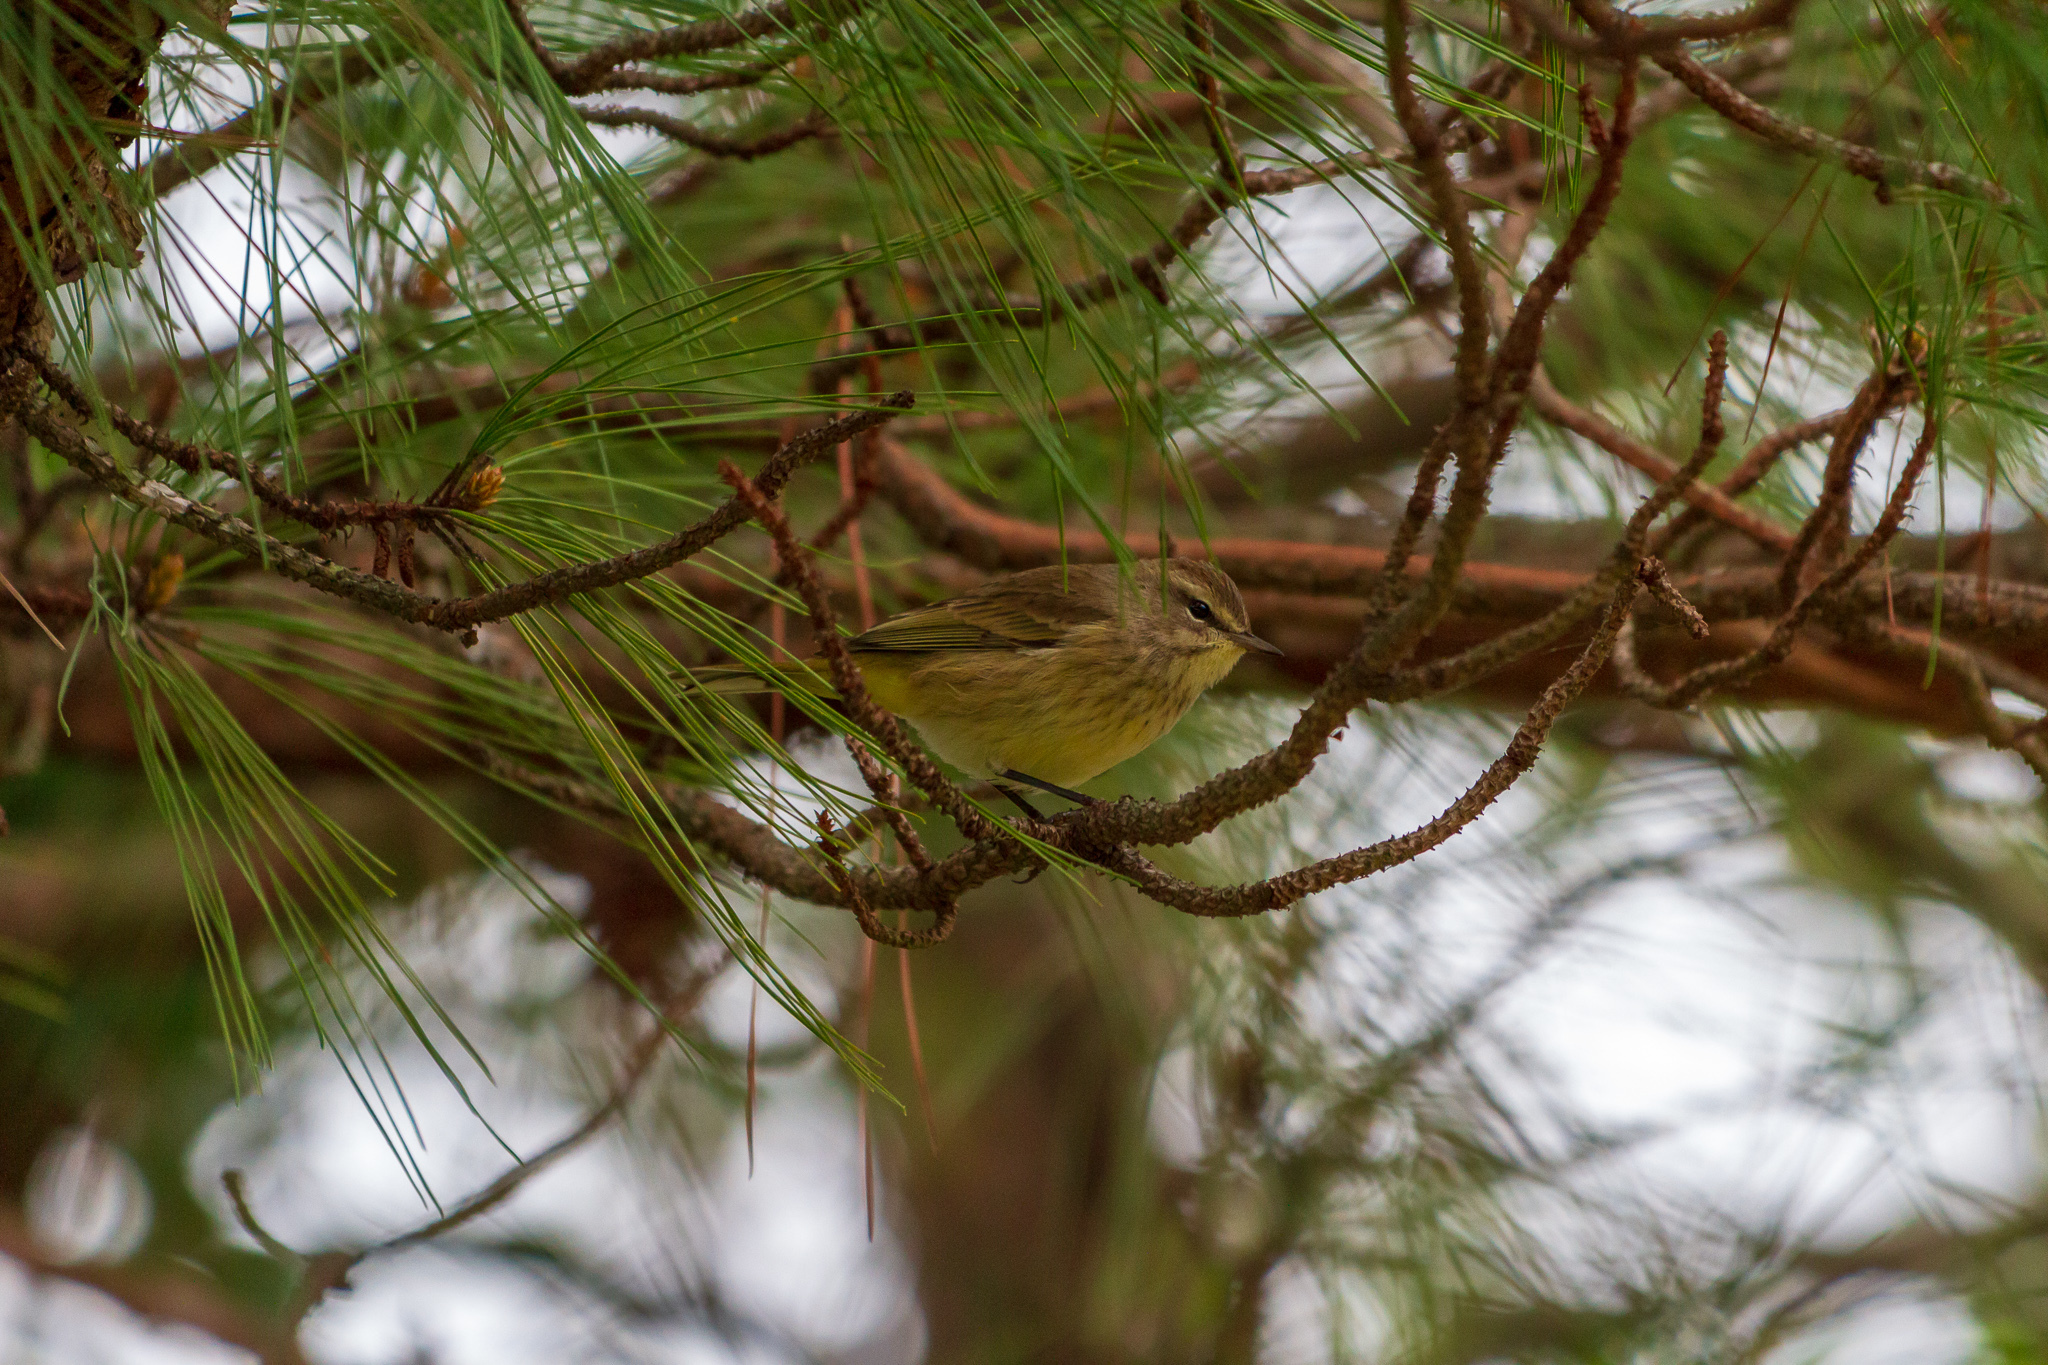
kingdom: Animalia
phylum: Chordata
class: Aves
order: Passeriformes
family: Parulidae
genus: Setophaga
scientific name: Setophaga palmarum
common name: Palm warbler
